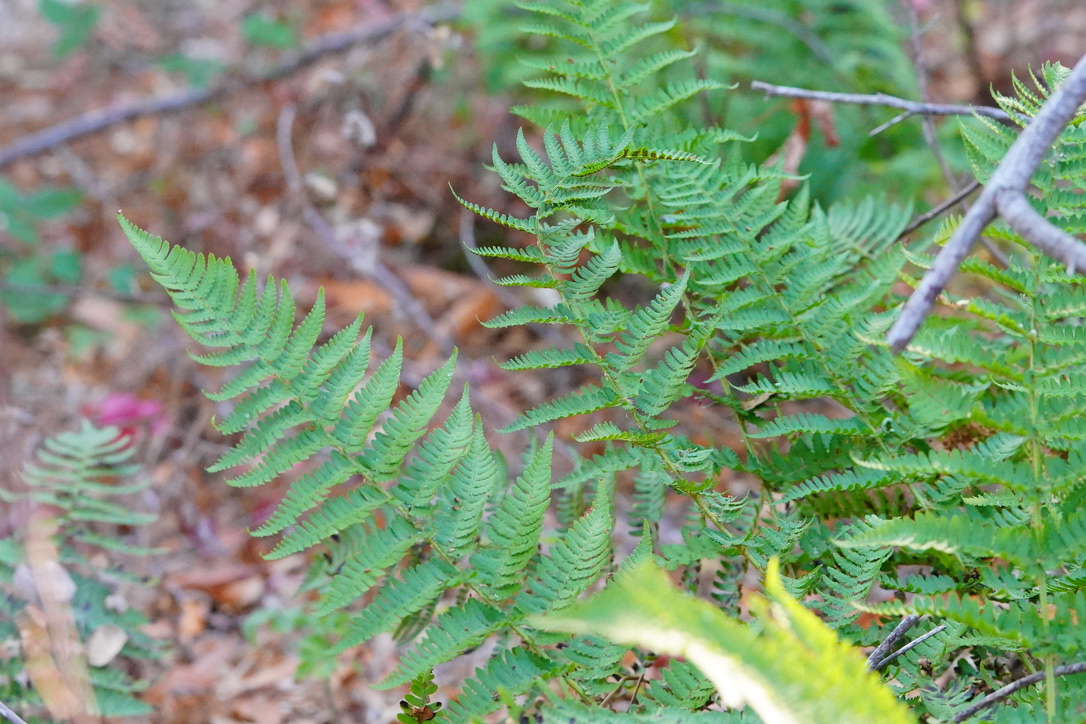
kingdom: Plantae
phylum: Tracheophyta
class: Polypodiopsida
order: Polypodiales
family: Dryopteridaceae
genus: Dryopteris
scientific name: Dryopteris arguta
